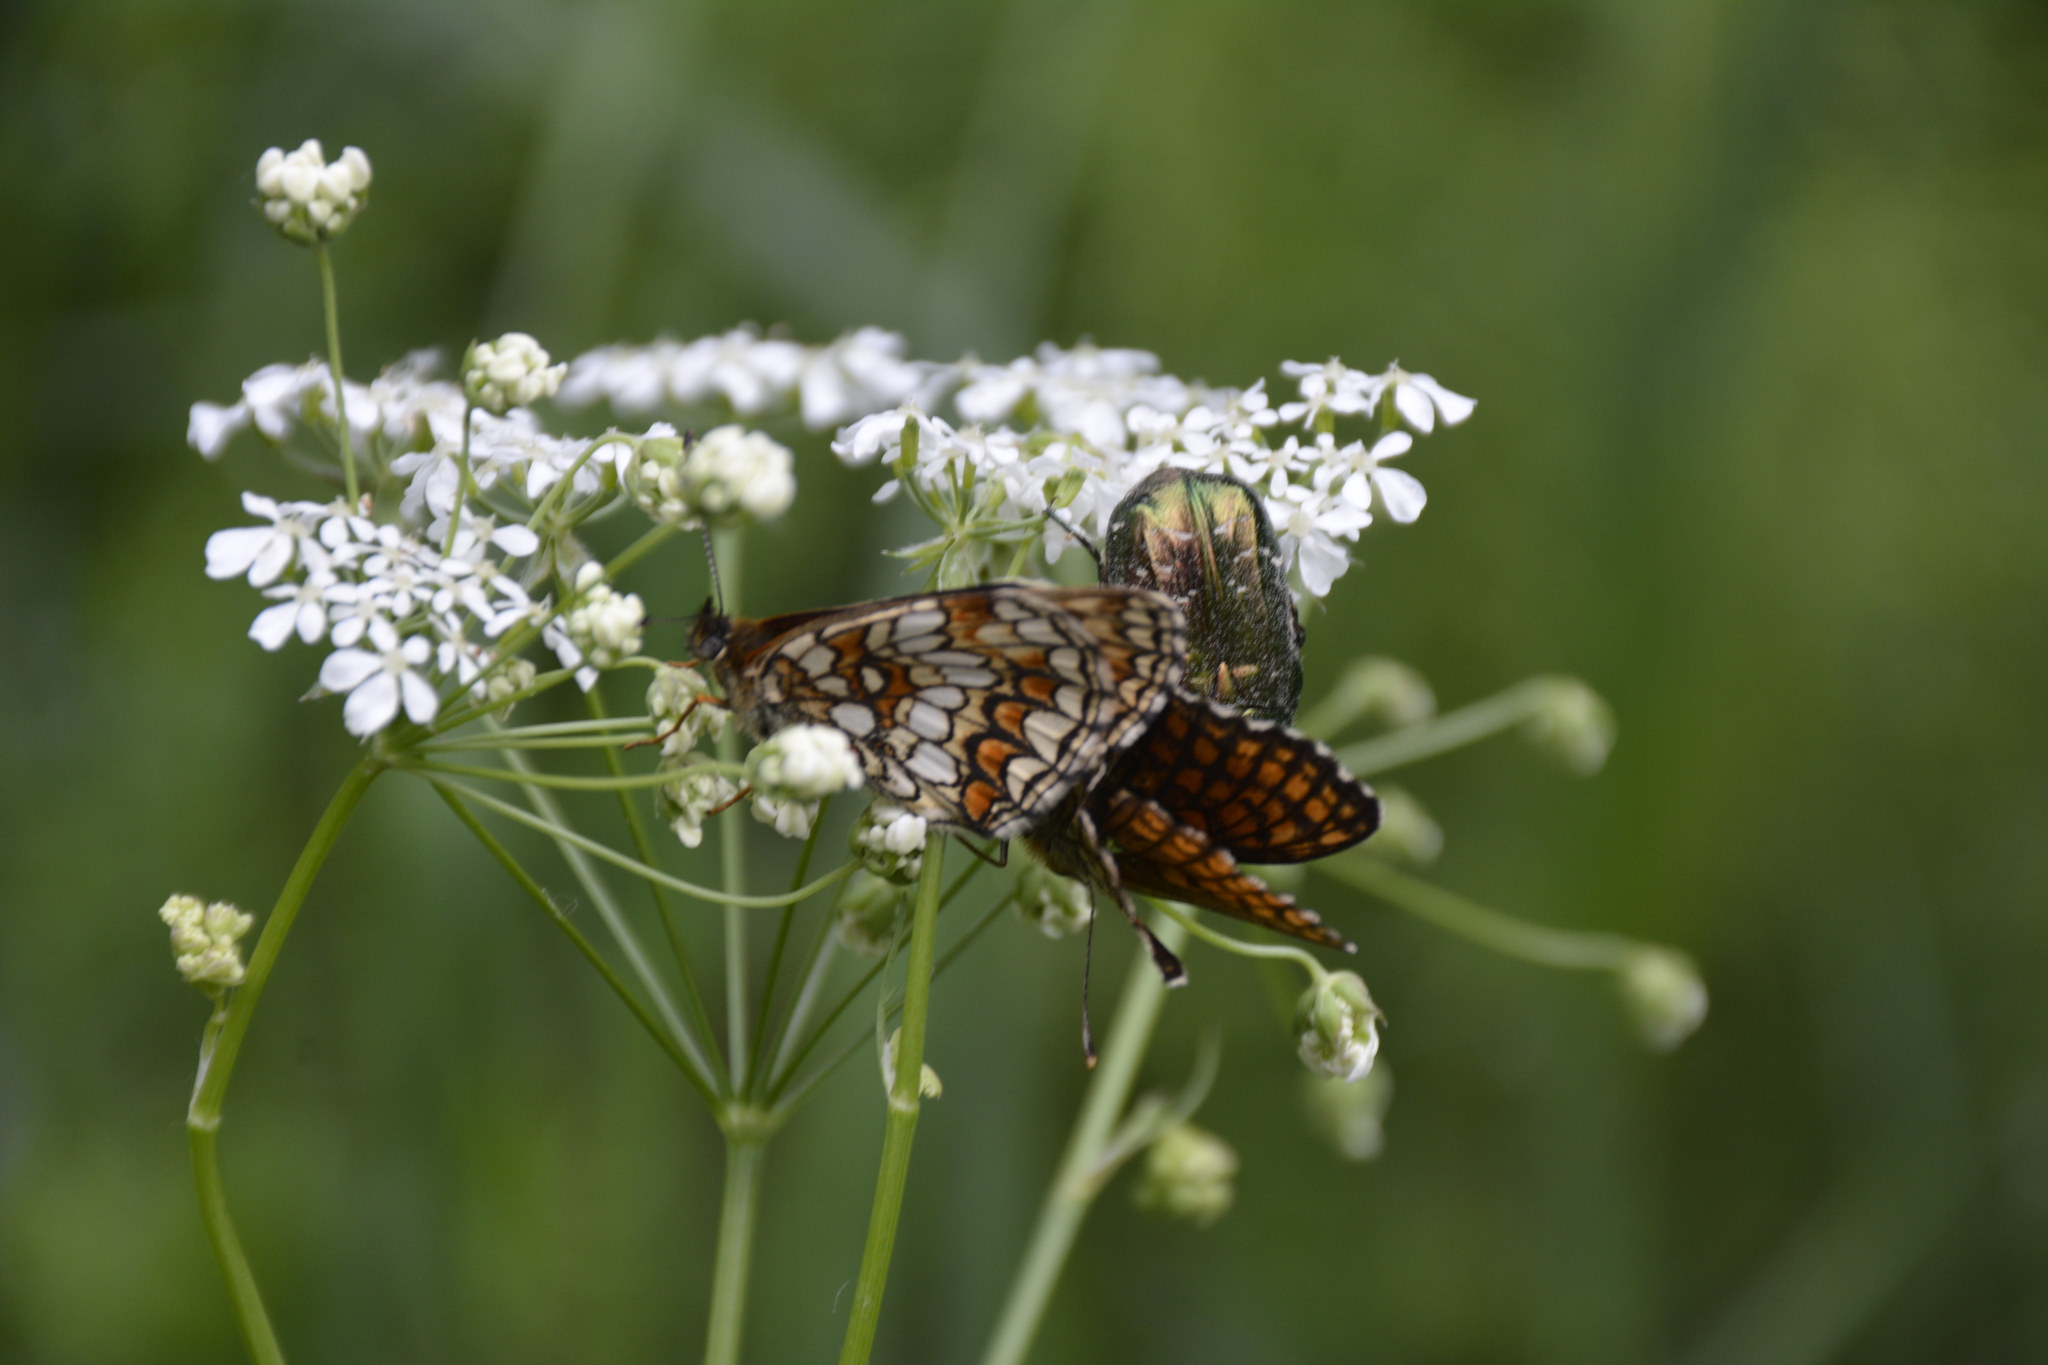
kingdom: Animalia
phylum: Arthropoda
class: Insecta
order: Lepidoptera
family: Nymphalidae
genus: Melitaea
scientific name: Melitaea athalia
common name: Heath fritillary
